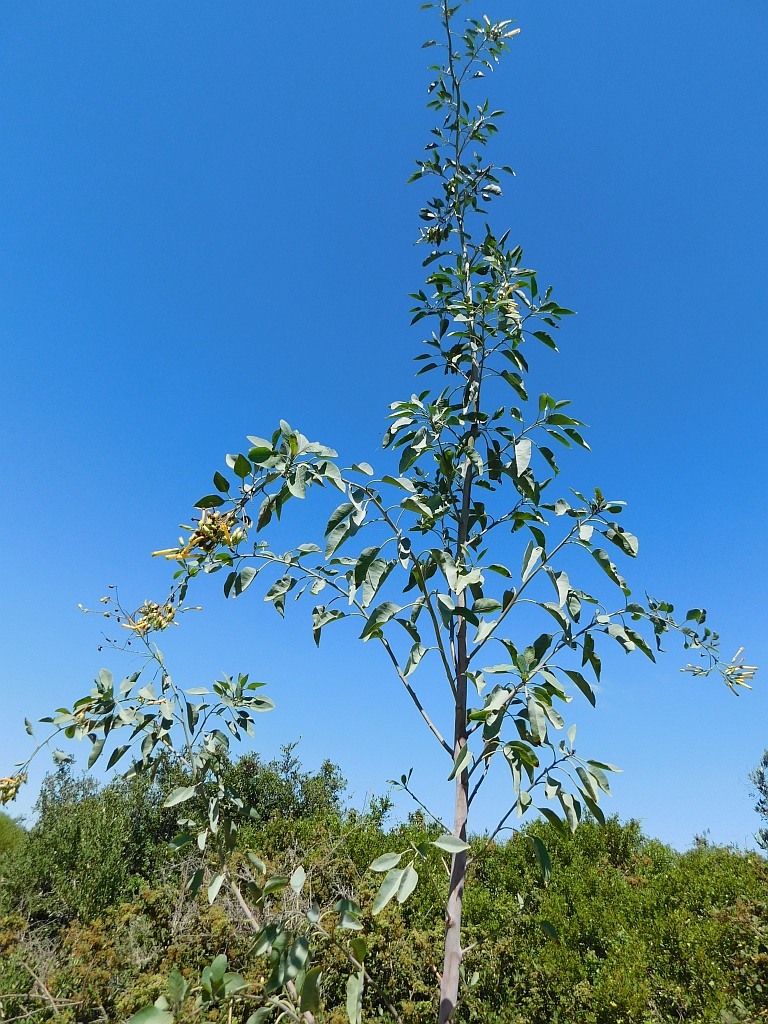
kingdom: Plantae
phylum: Tracheophyta
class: Magnoliopsida
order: Solanales
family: Solanaceae
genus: Nicotiana
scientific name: Nicotiana glauca
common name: Tree tobacco
